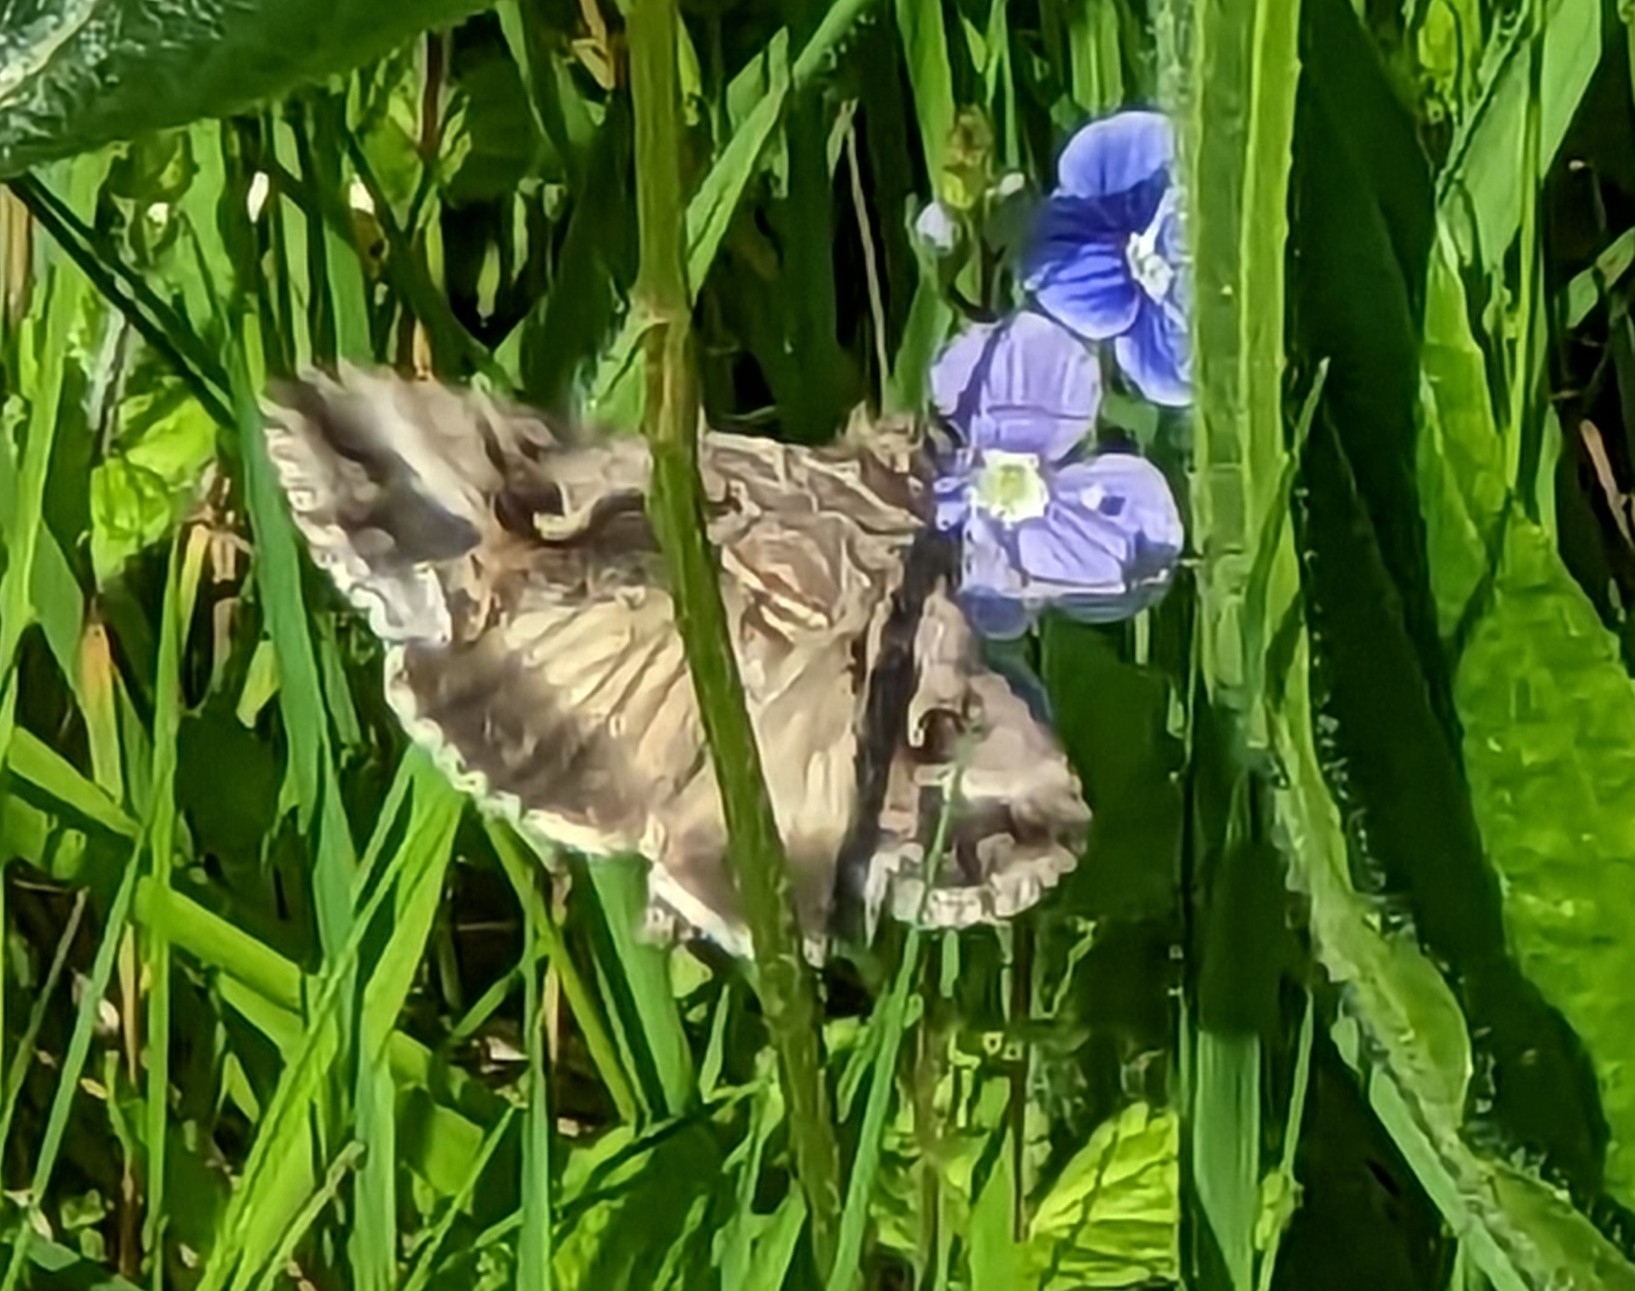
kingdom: Animalia
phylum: Arthropoda
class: Insecta
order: Lepidoptera
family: Noctuidae
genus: Autographa
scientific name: Autographa gamma
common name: Silver y
